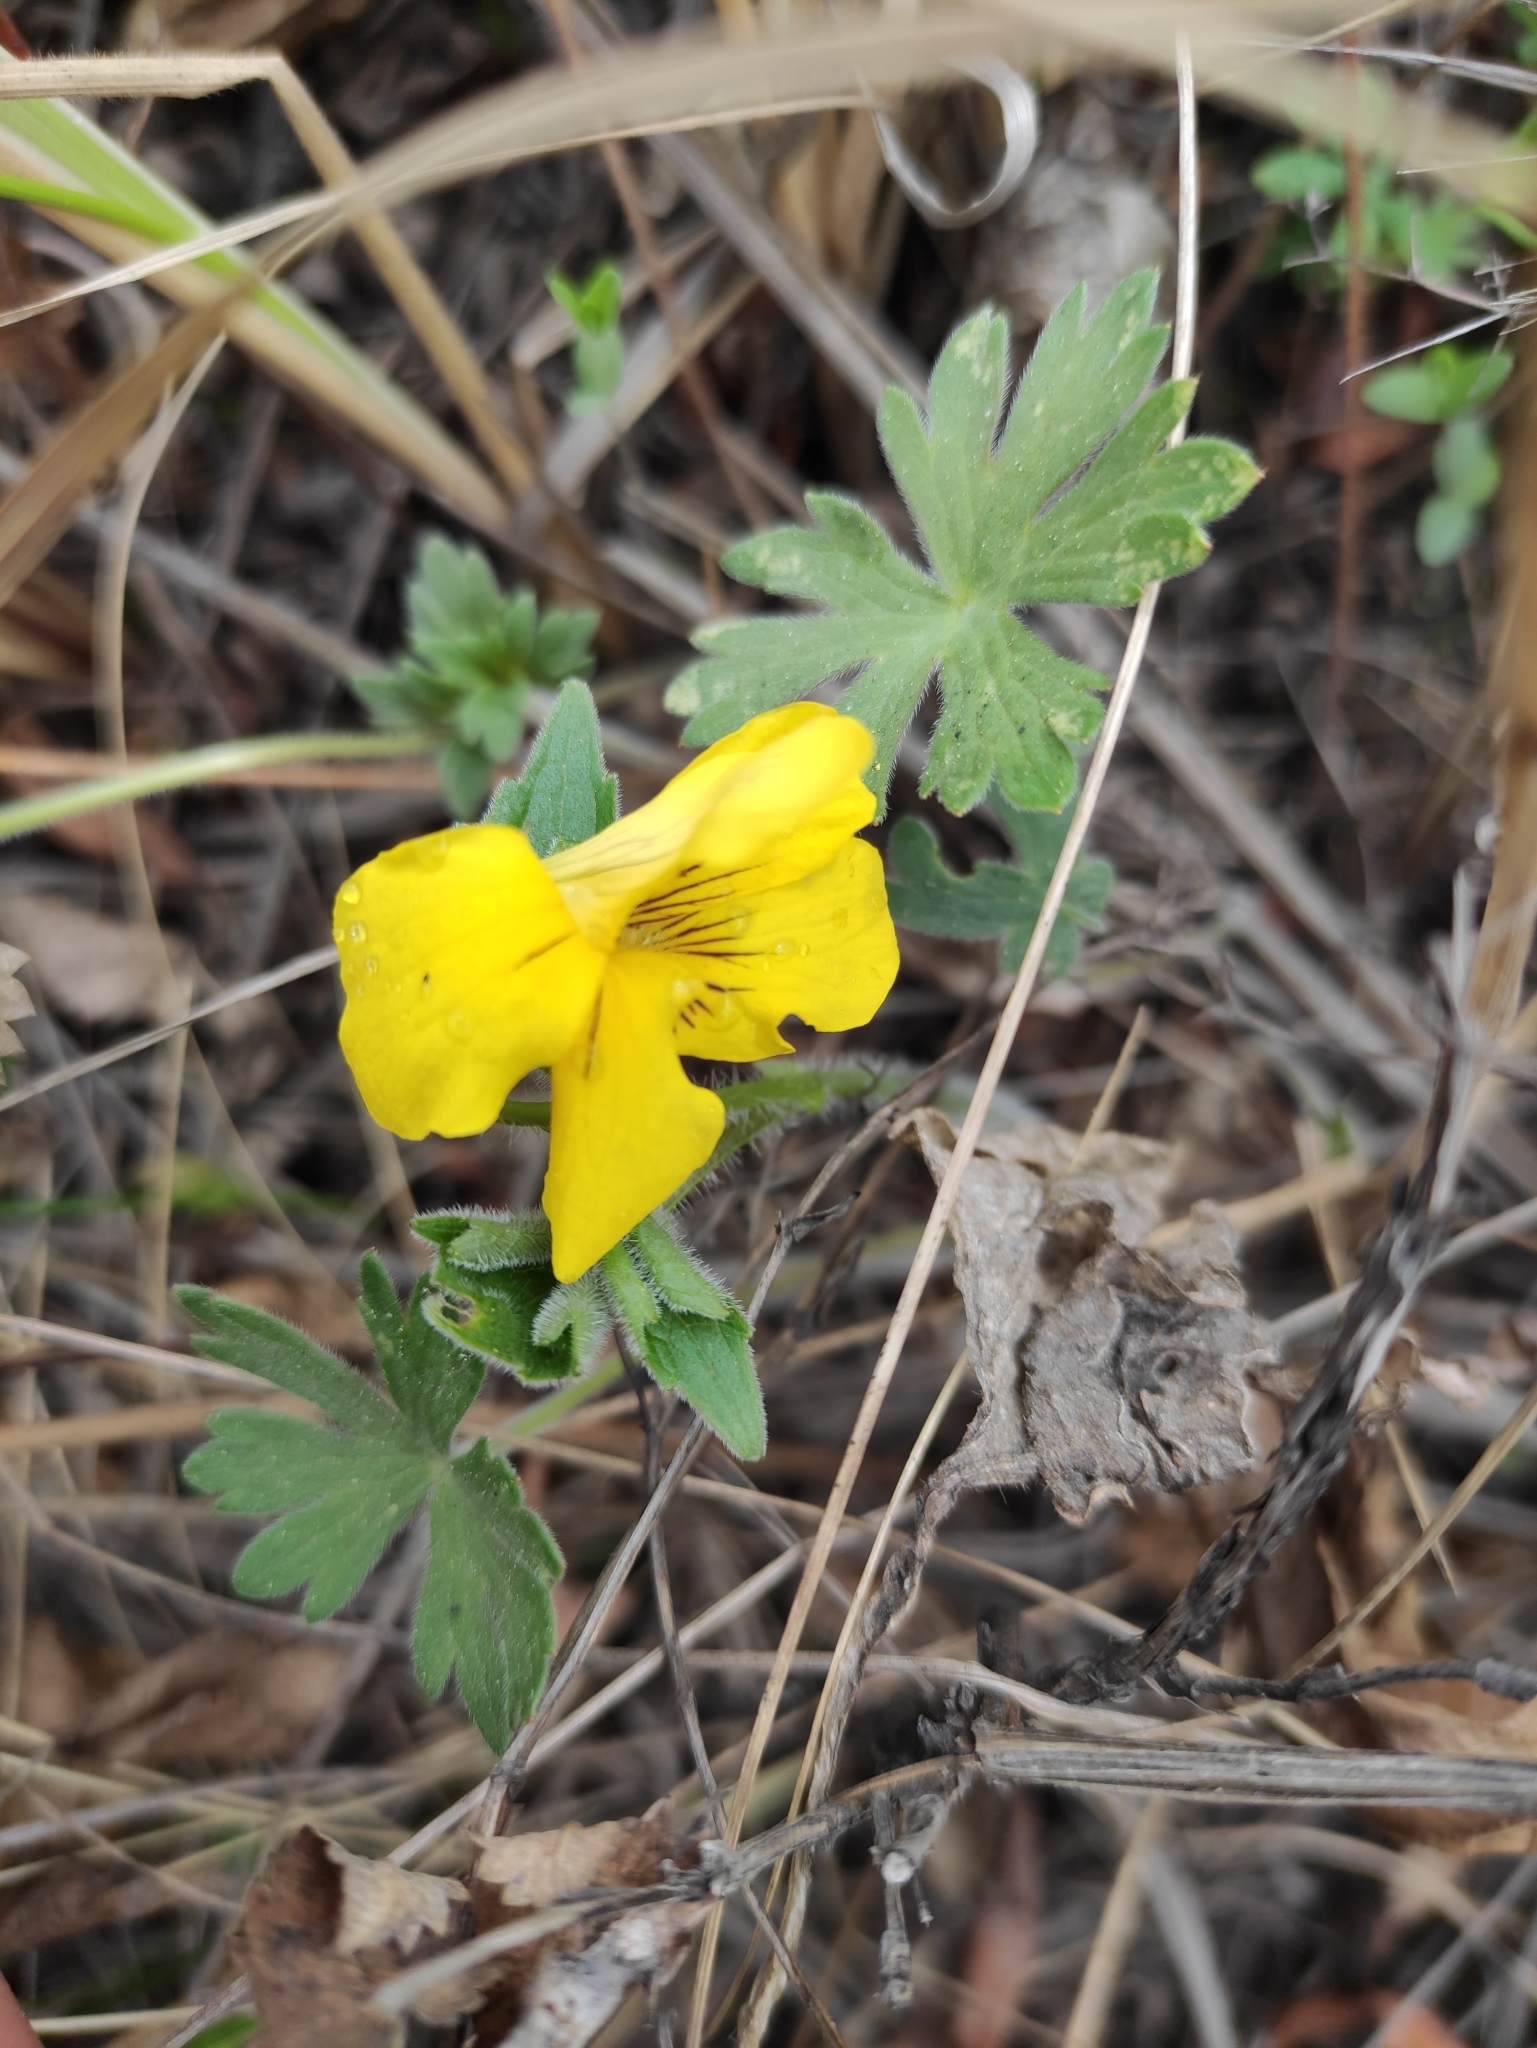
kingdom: Plantae
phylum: Tracheophyta
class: Magnoliopsida
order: Malpighiales
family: Violaceae
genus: Viola
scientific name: Viola uniflora
